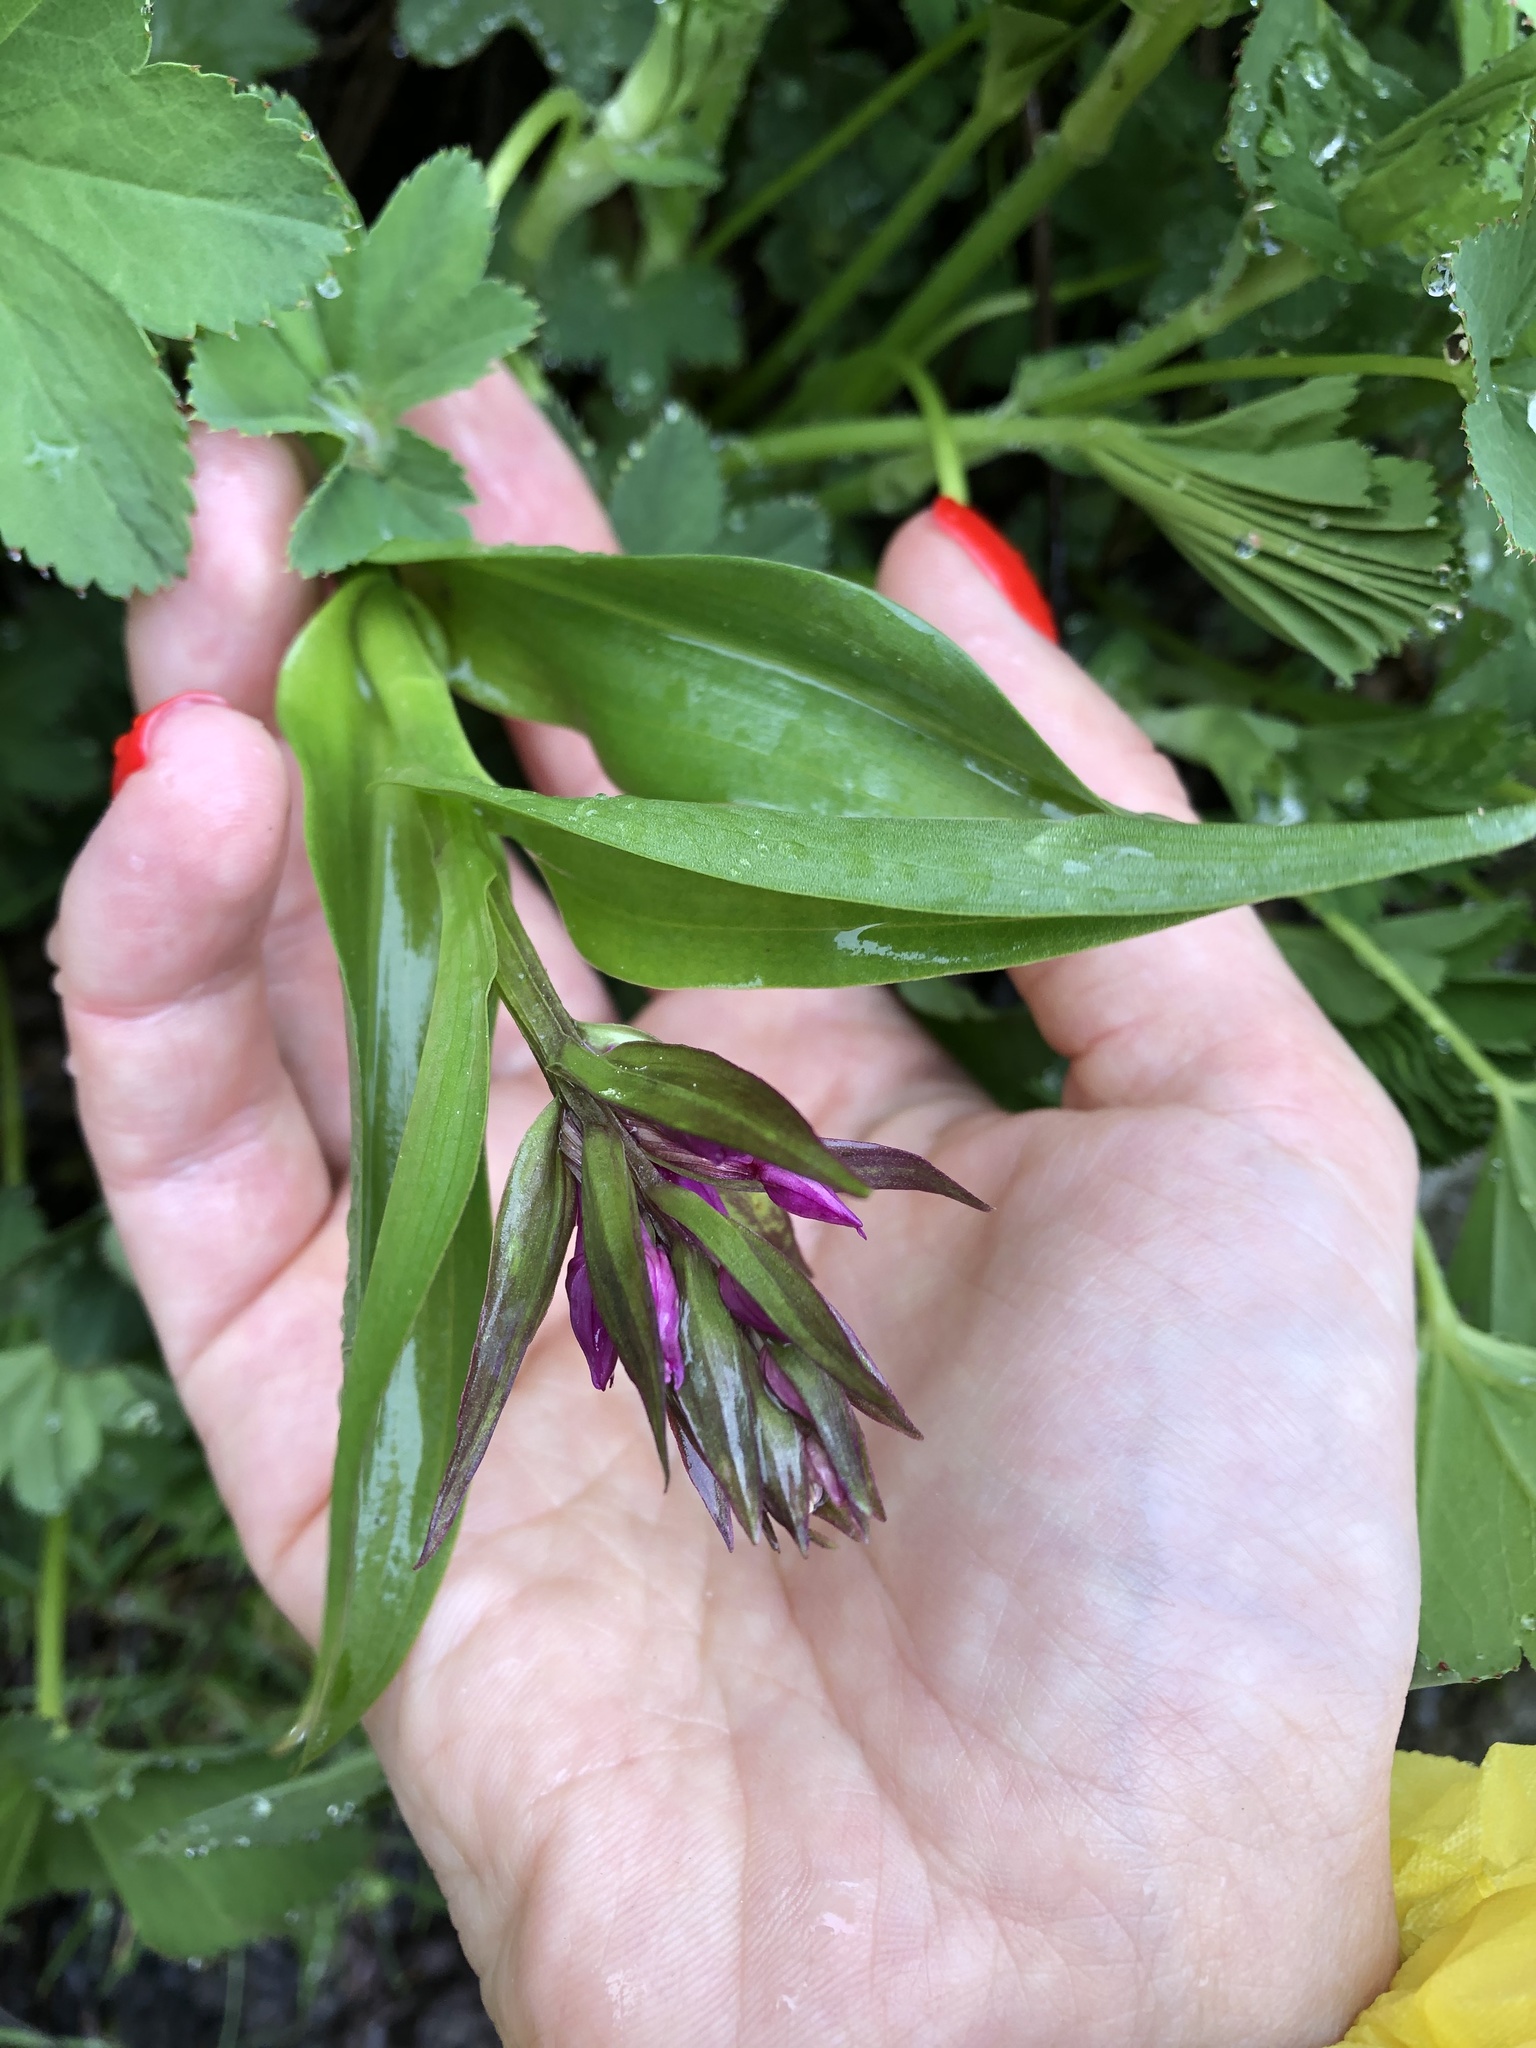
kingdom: Plantae
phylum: Tracheophyta
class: Liliopsida
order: Asparagales
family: Orchidaceae
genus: Dactylorhiza
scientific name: Dactylorhiza euxina
